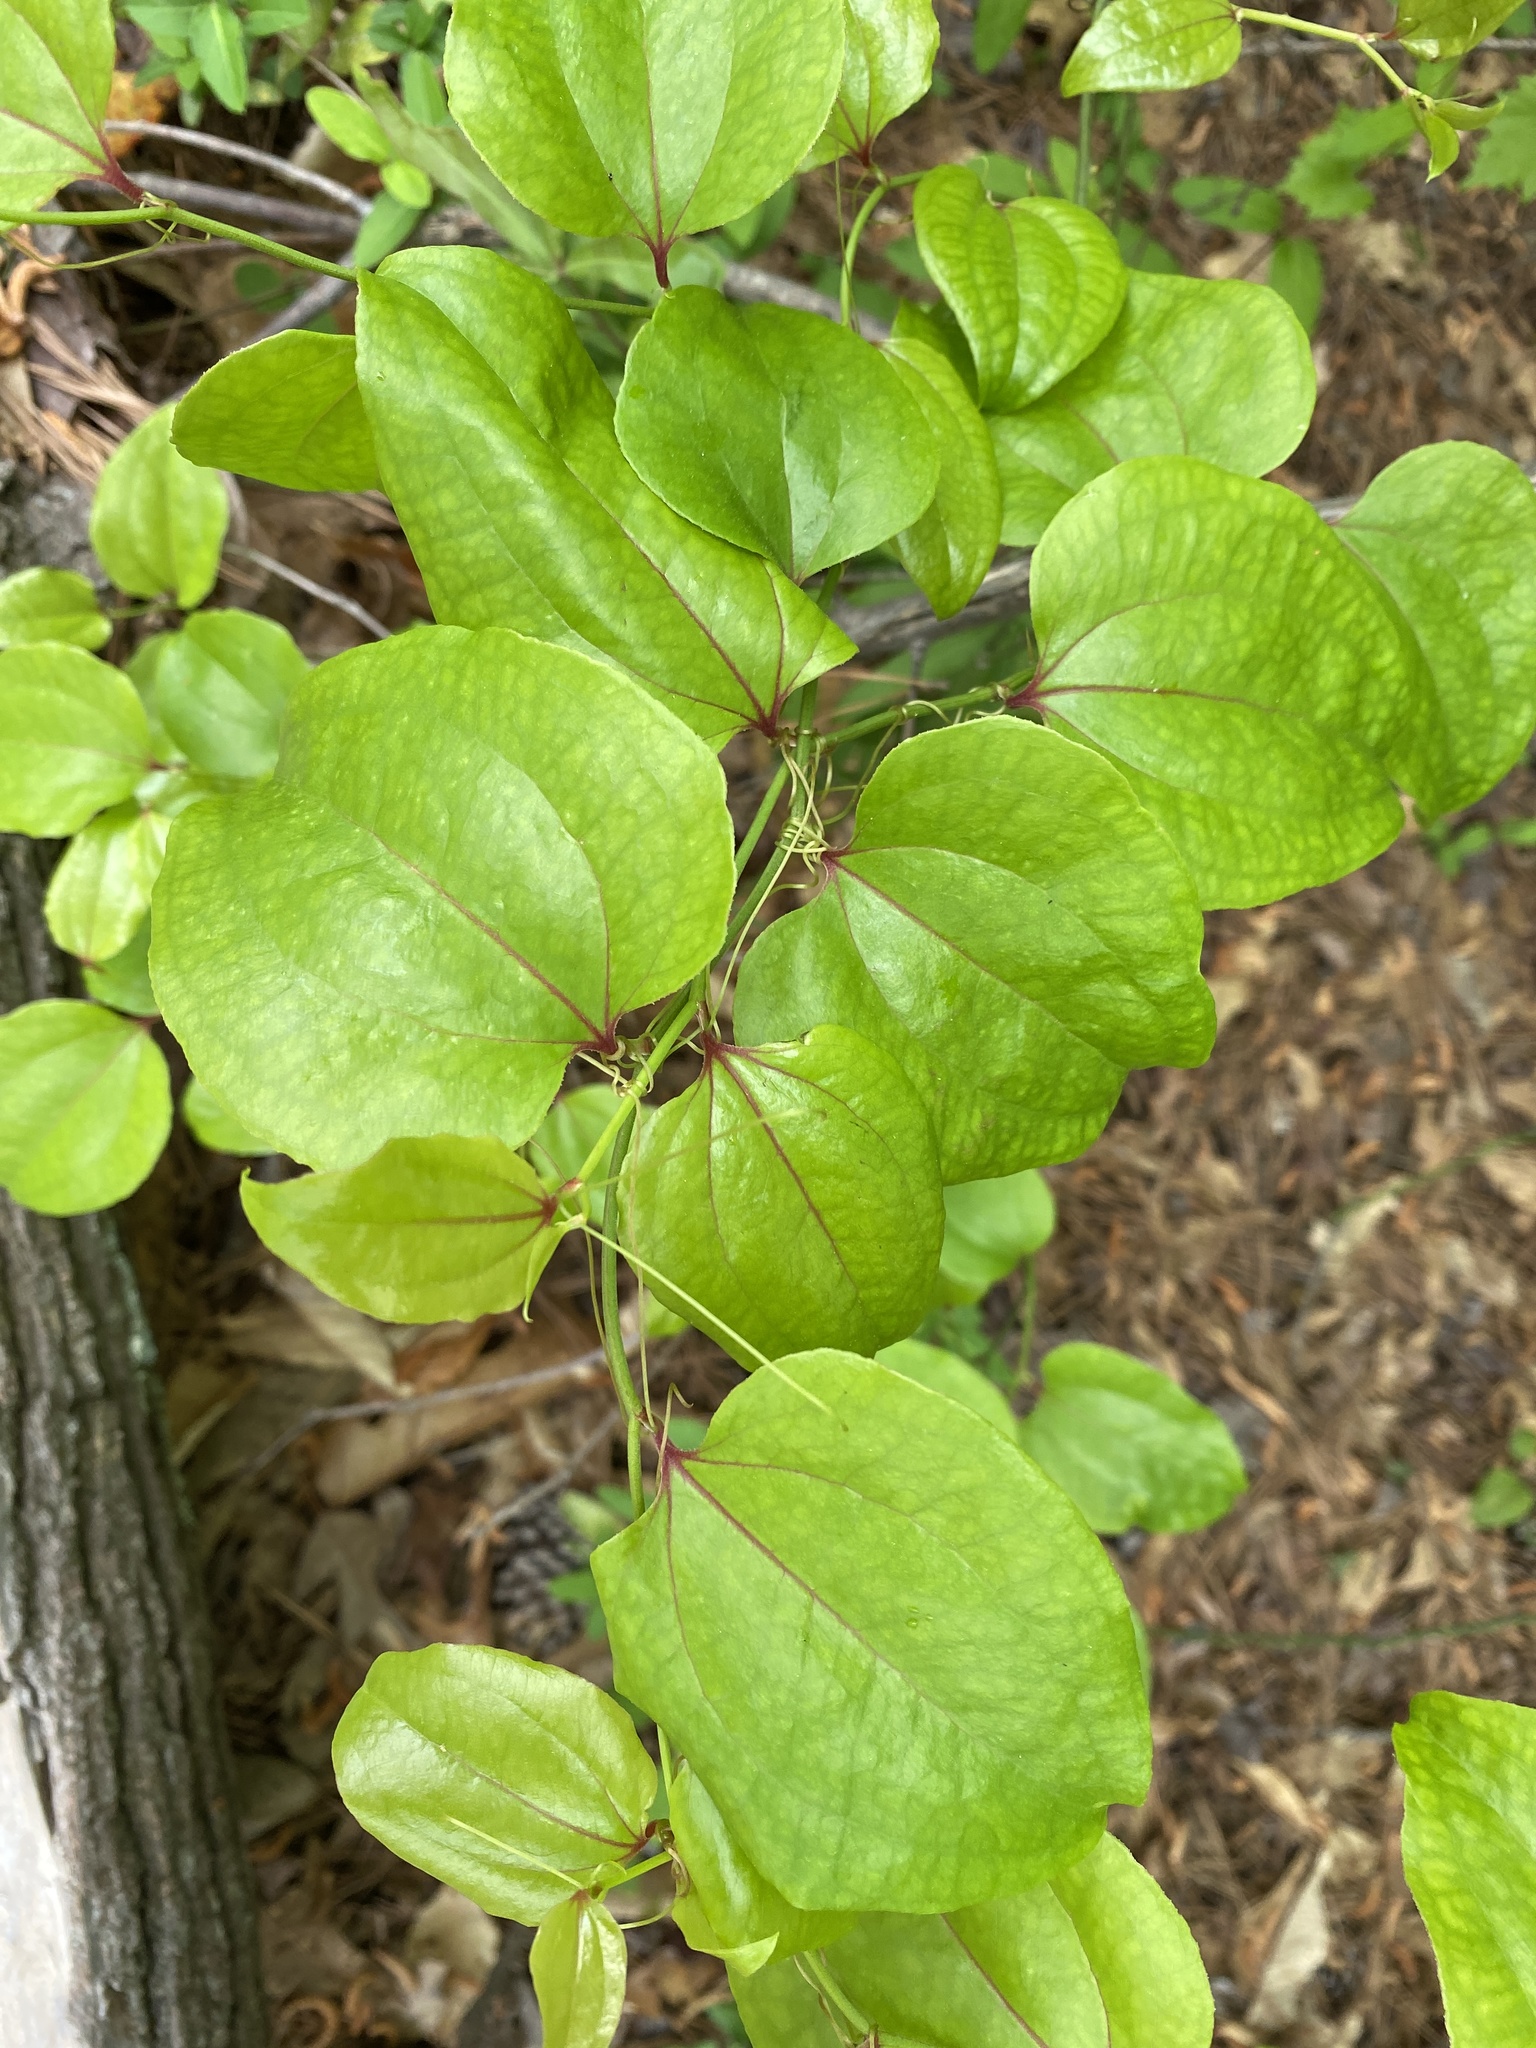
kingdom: Plantae
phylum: Tracheophyta
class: Liliopsida
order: Liliales
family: Smilacaceae
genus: Smilax
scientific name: Smilax rotundifolia
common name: Bullbriar
